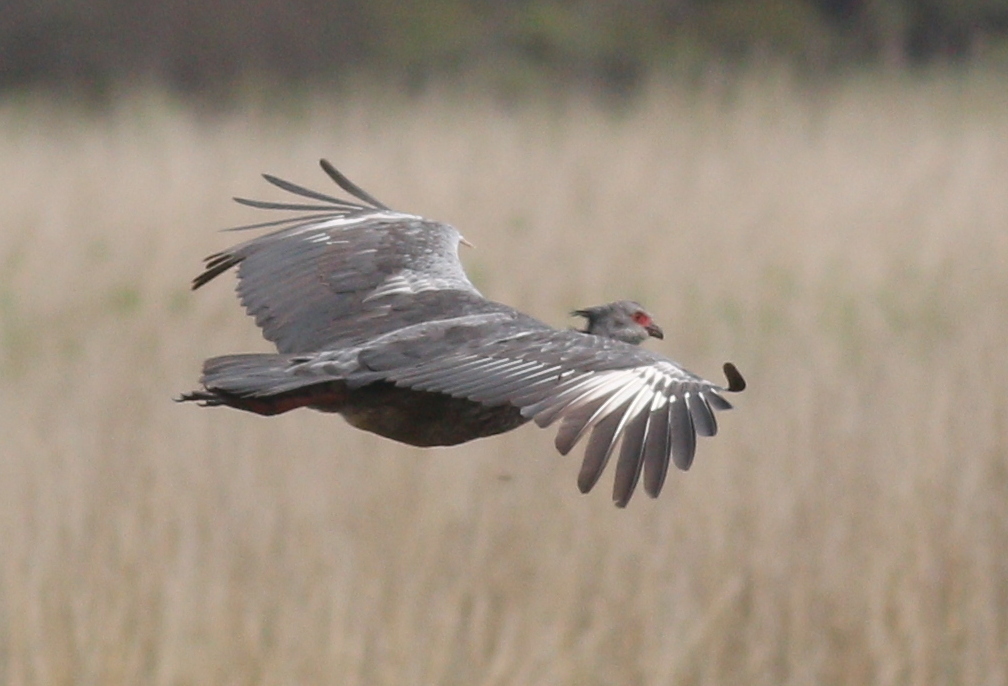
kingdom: Animalia
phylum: Chordata
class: Aves
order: Anseriformes
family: Anhimidae
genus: Chauna
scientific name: Chauna torquata
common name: Southern screamer
